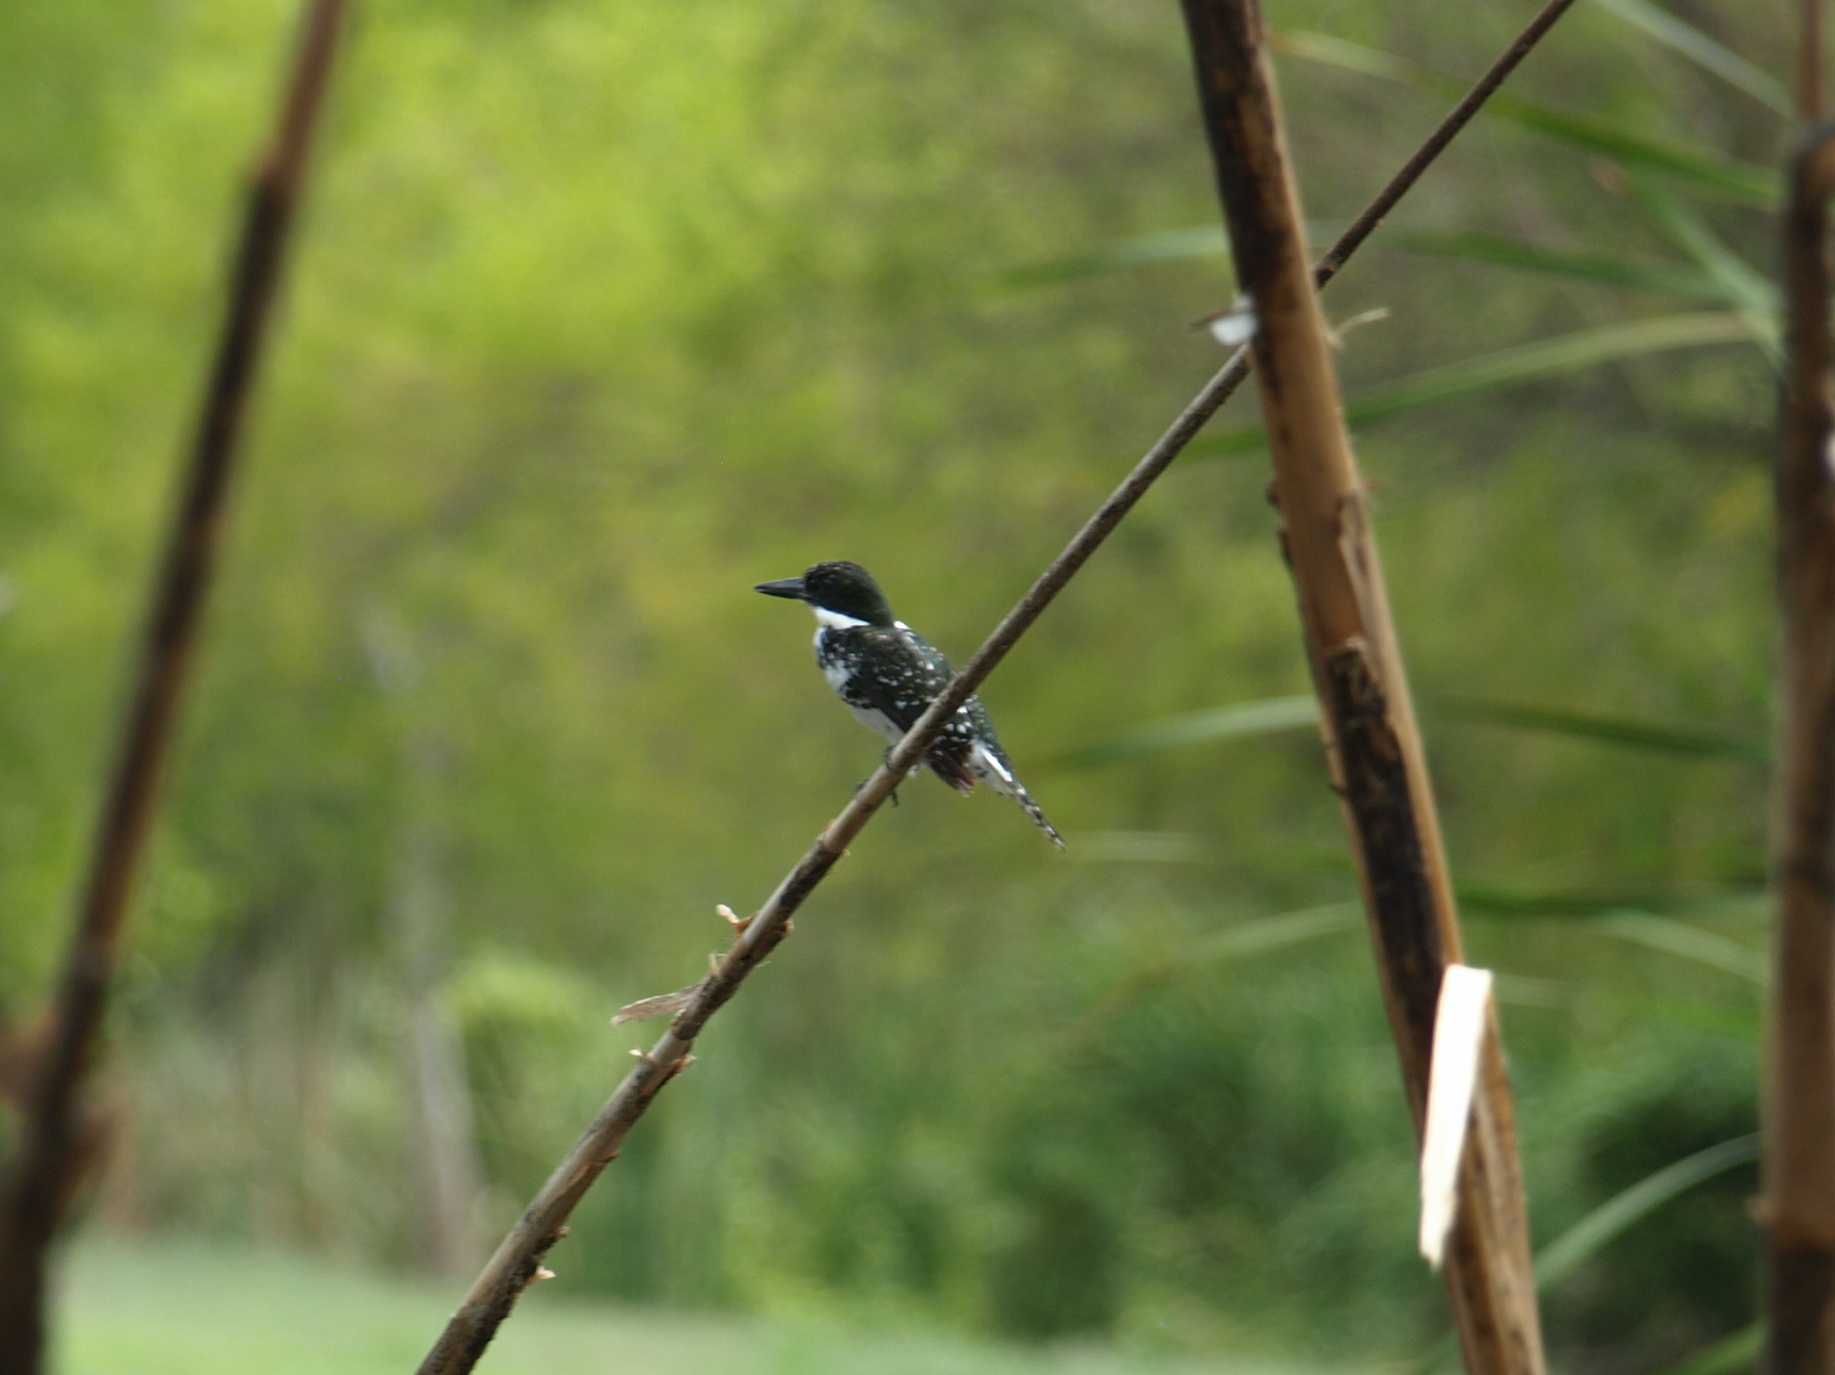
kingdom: Animalia
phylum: Chordata
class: Aves
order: Coraciiformes
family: Alcedinidae
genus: Chloroceryle
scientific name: Chloroceryle americana
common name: Green kingfisher
